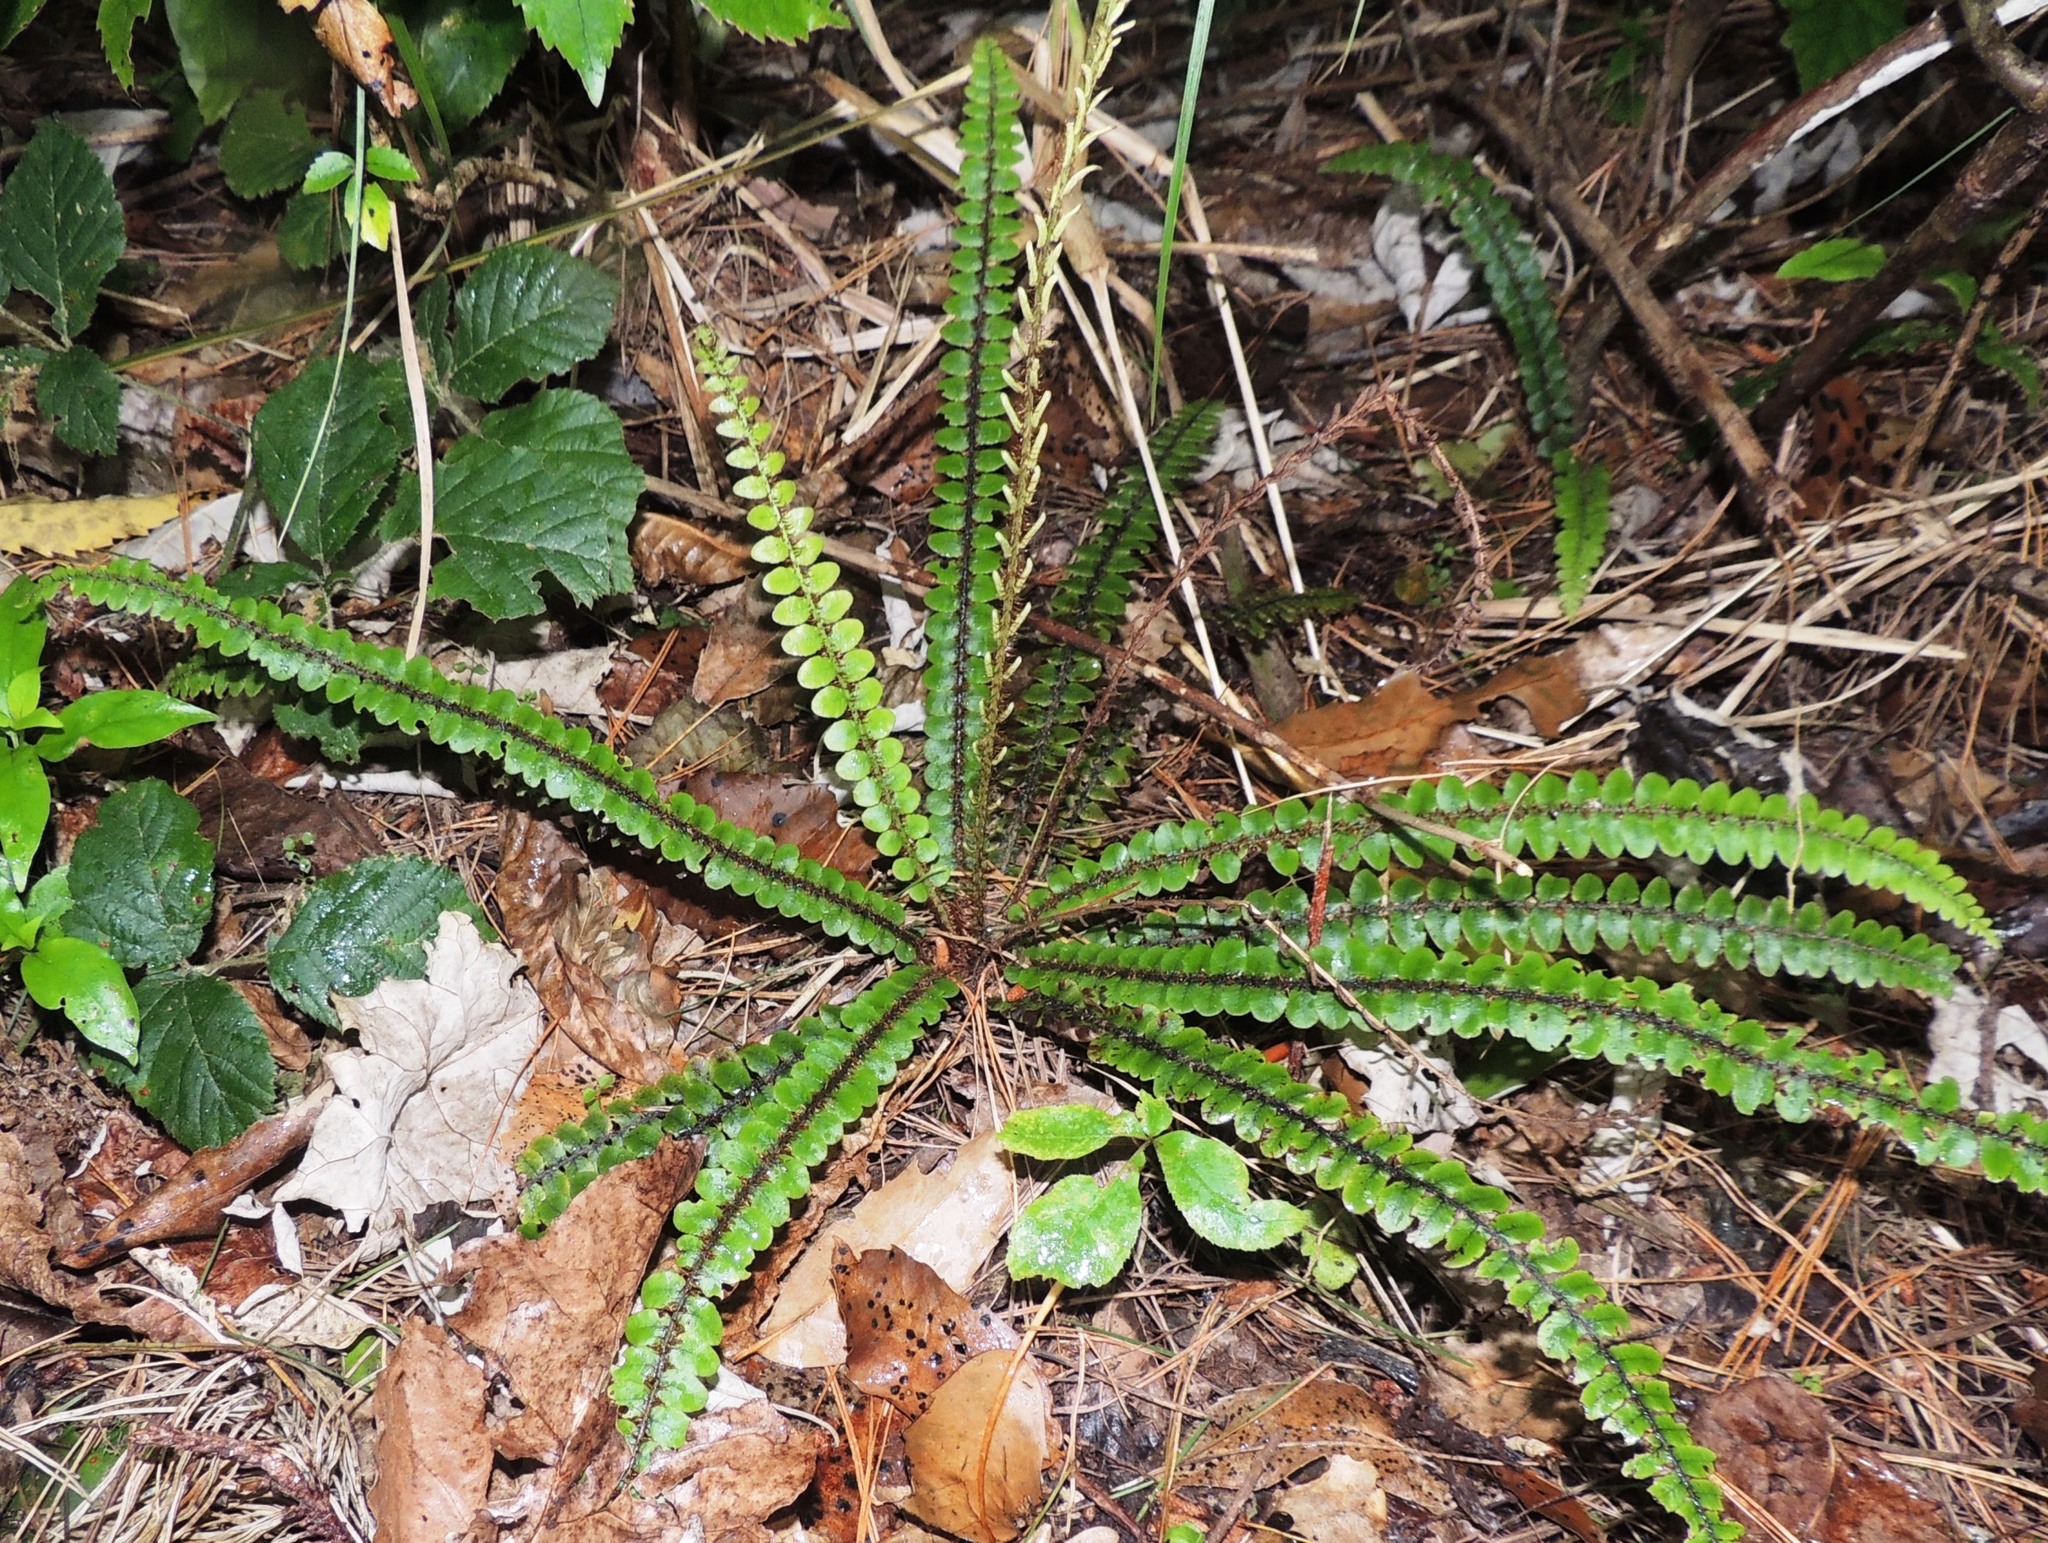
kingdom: Plantae
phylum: Tracheophyta
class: Polypodiopsida
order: Polypodiales
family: Blechnaceae
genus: Cranfillia
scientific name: Cranfillia fluviatilis
